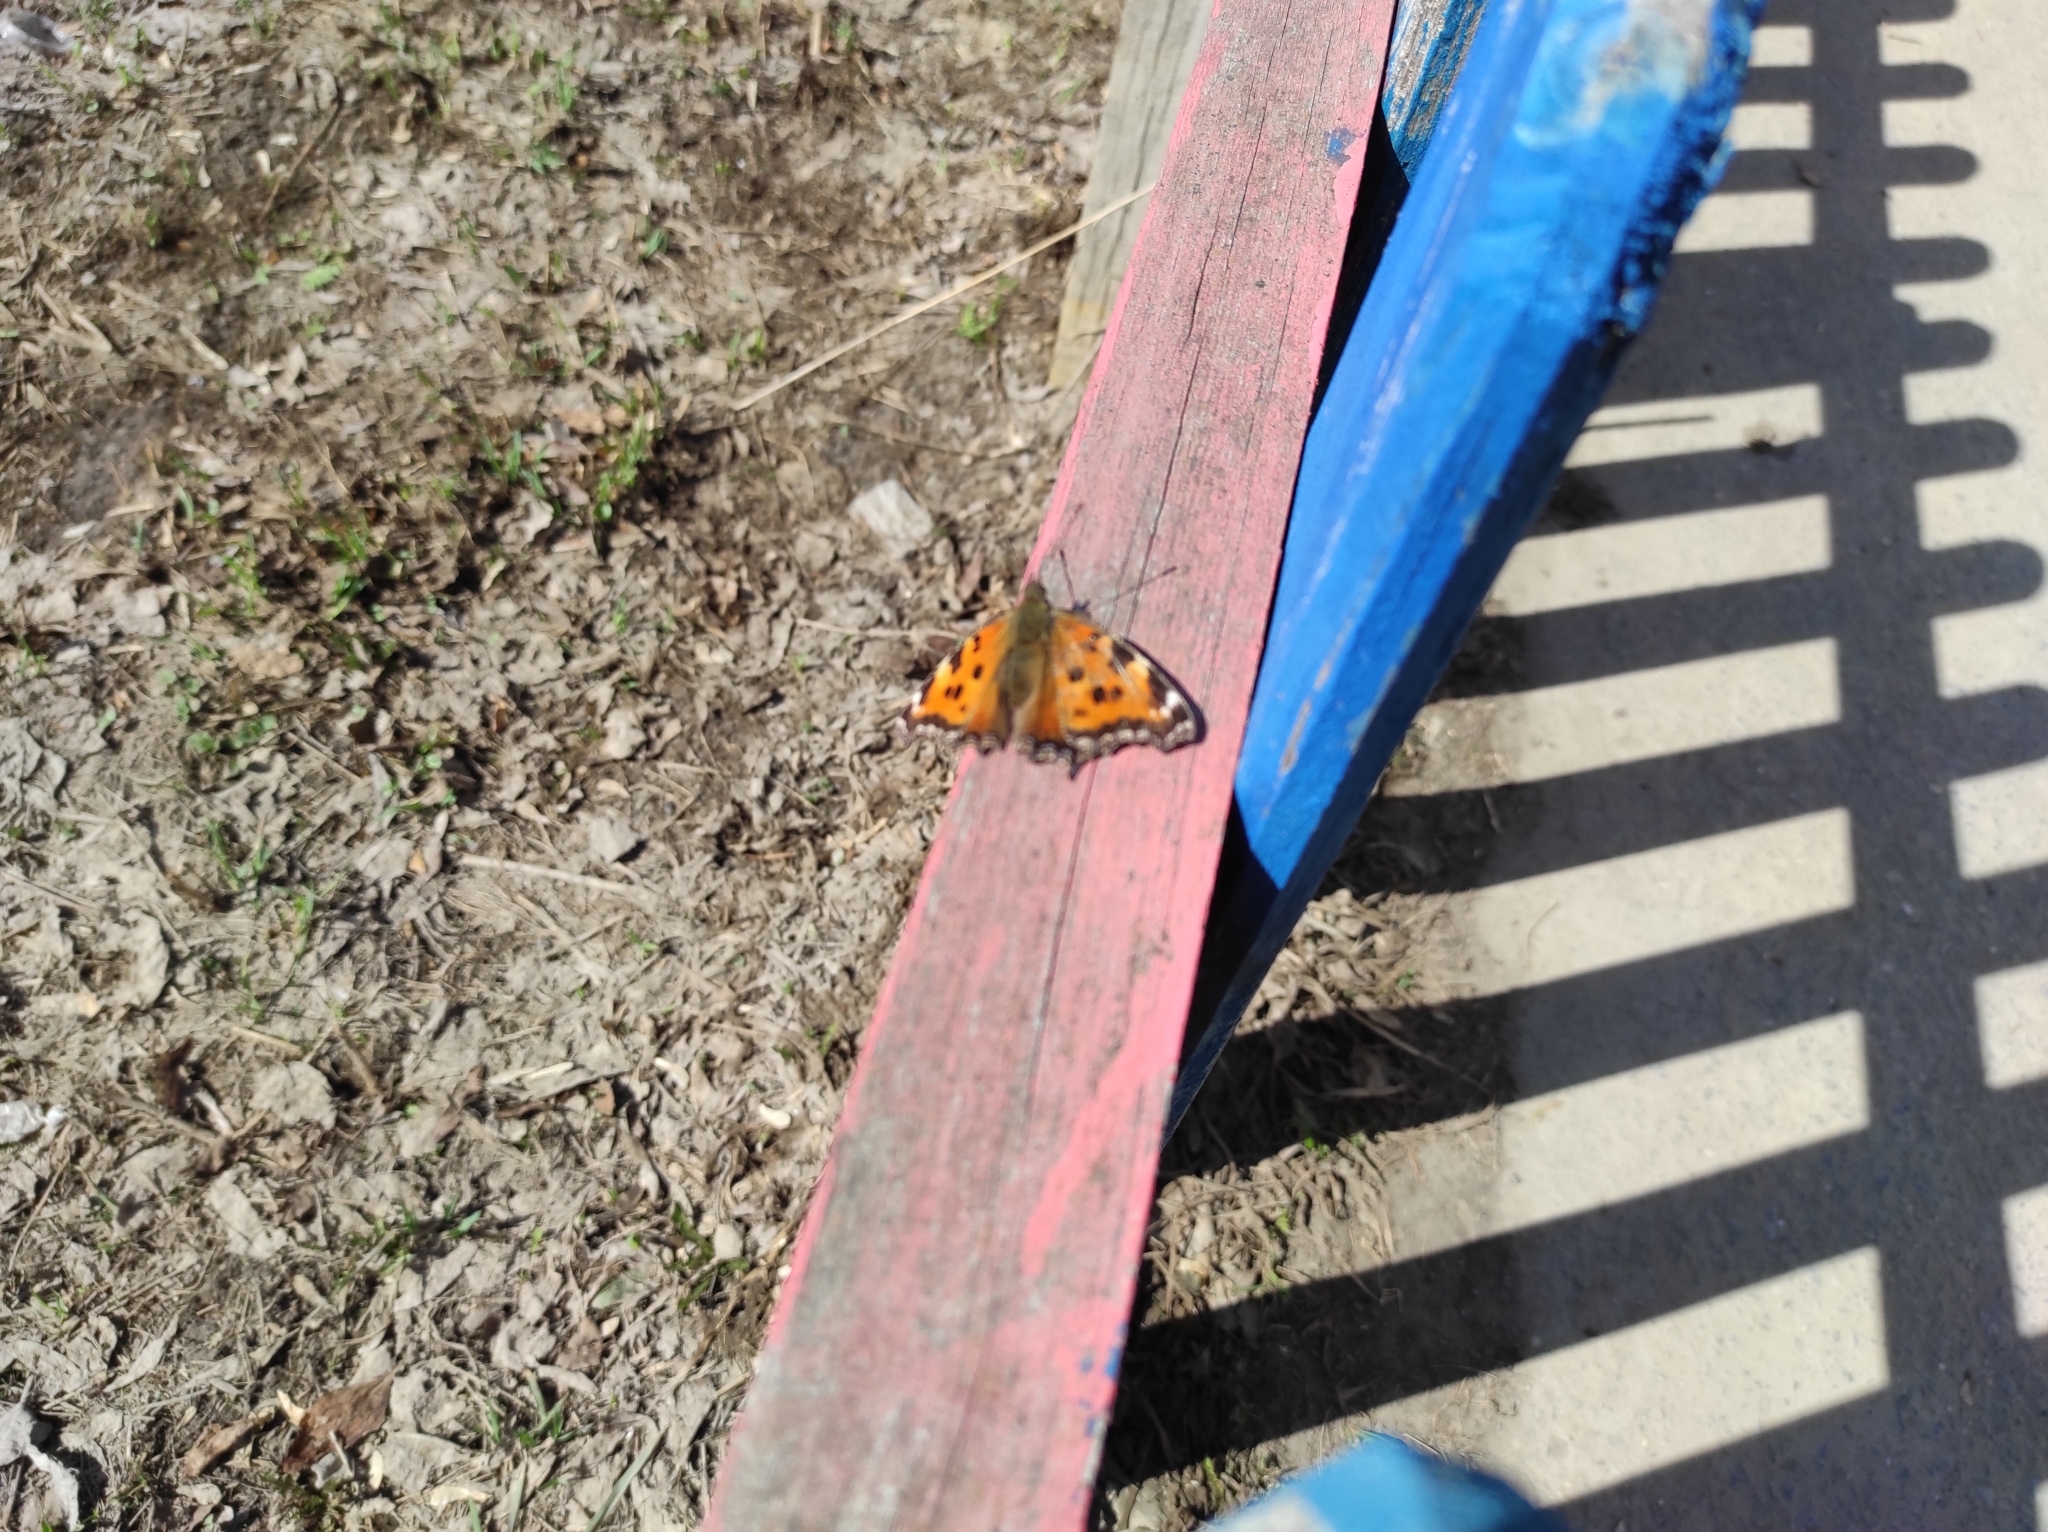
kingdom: Animalia
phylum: Arthropoda
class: Insecta
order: Lepidoptera
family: Nymphalidae
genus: Nymphalis
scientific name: Nymphalis xanthomelas
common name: Scarce tortoiseshell
